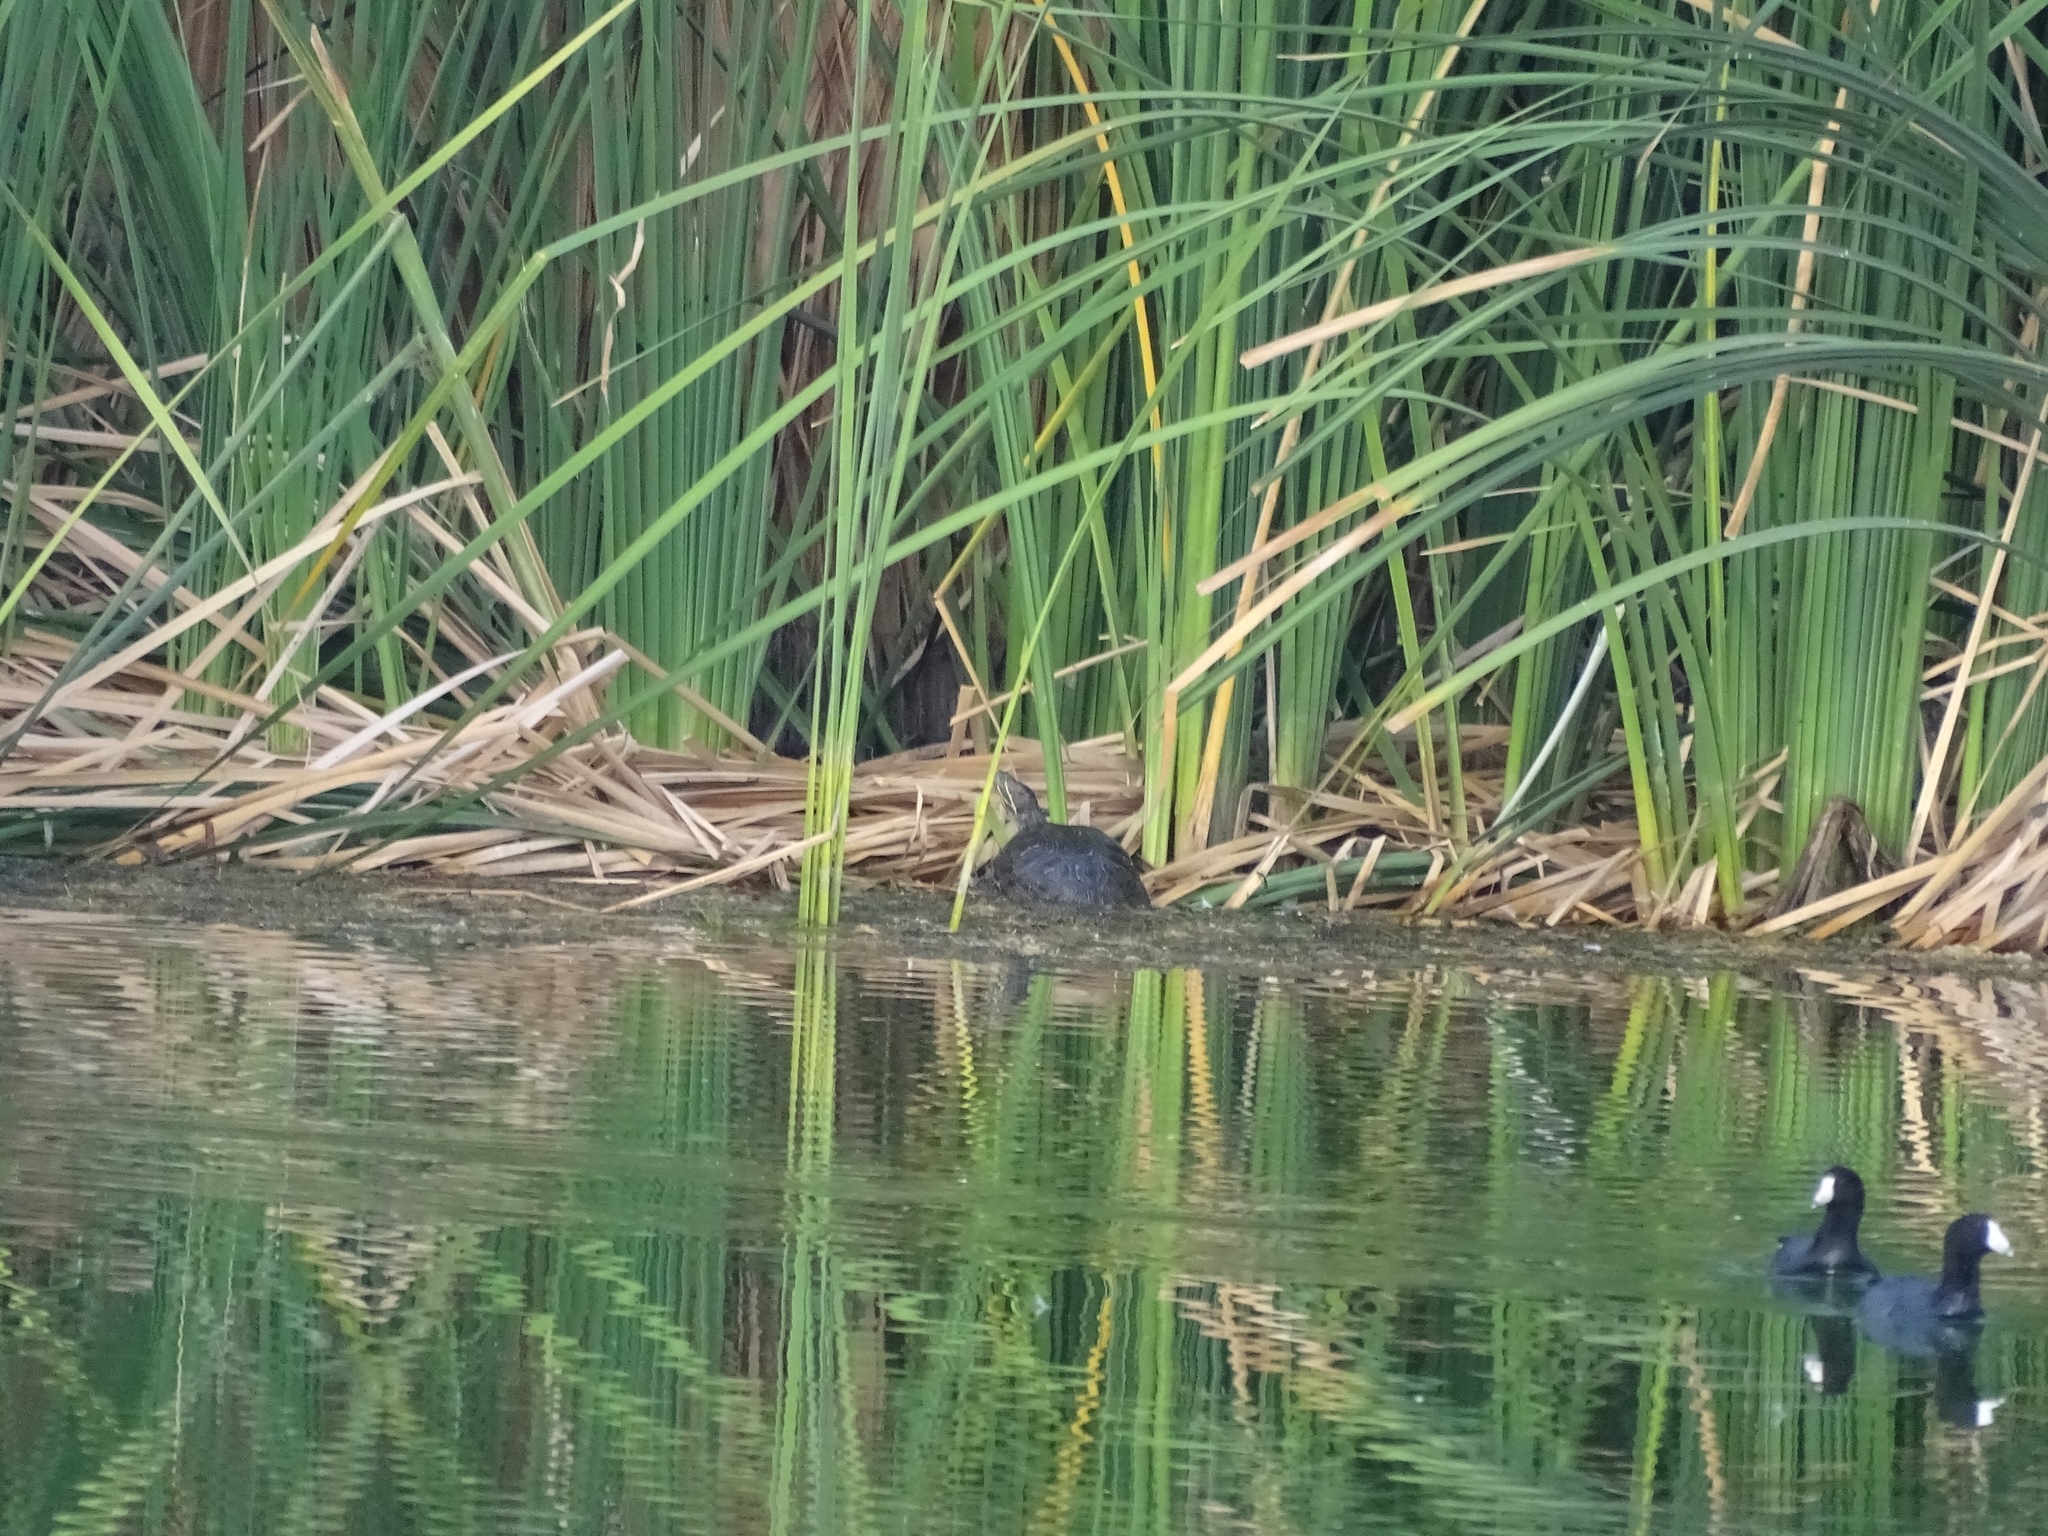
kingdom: Animalia
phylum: Chordata
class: Aves
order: Gruiformes
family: Rallidae
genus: Fulica
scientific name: Fulica americana
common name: American coot
